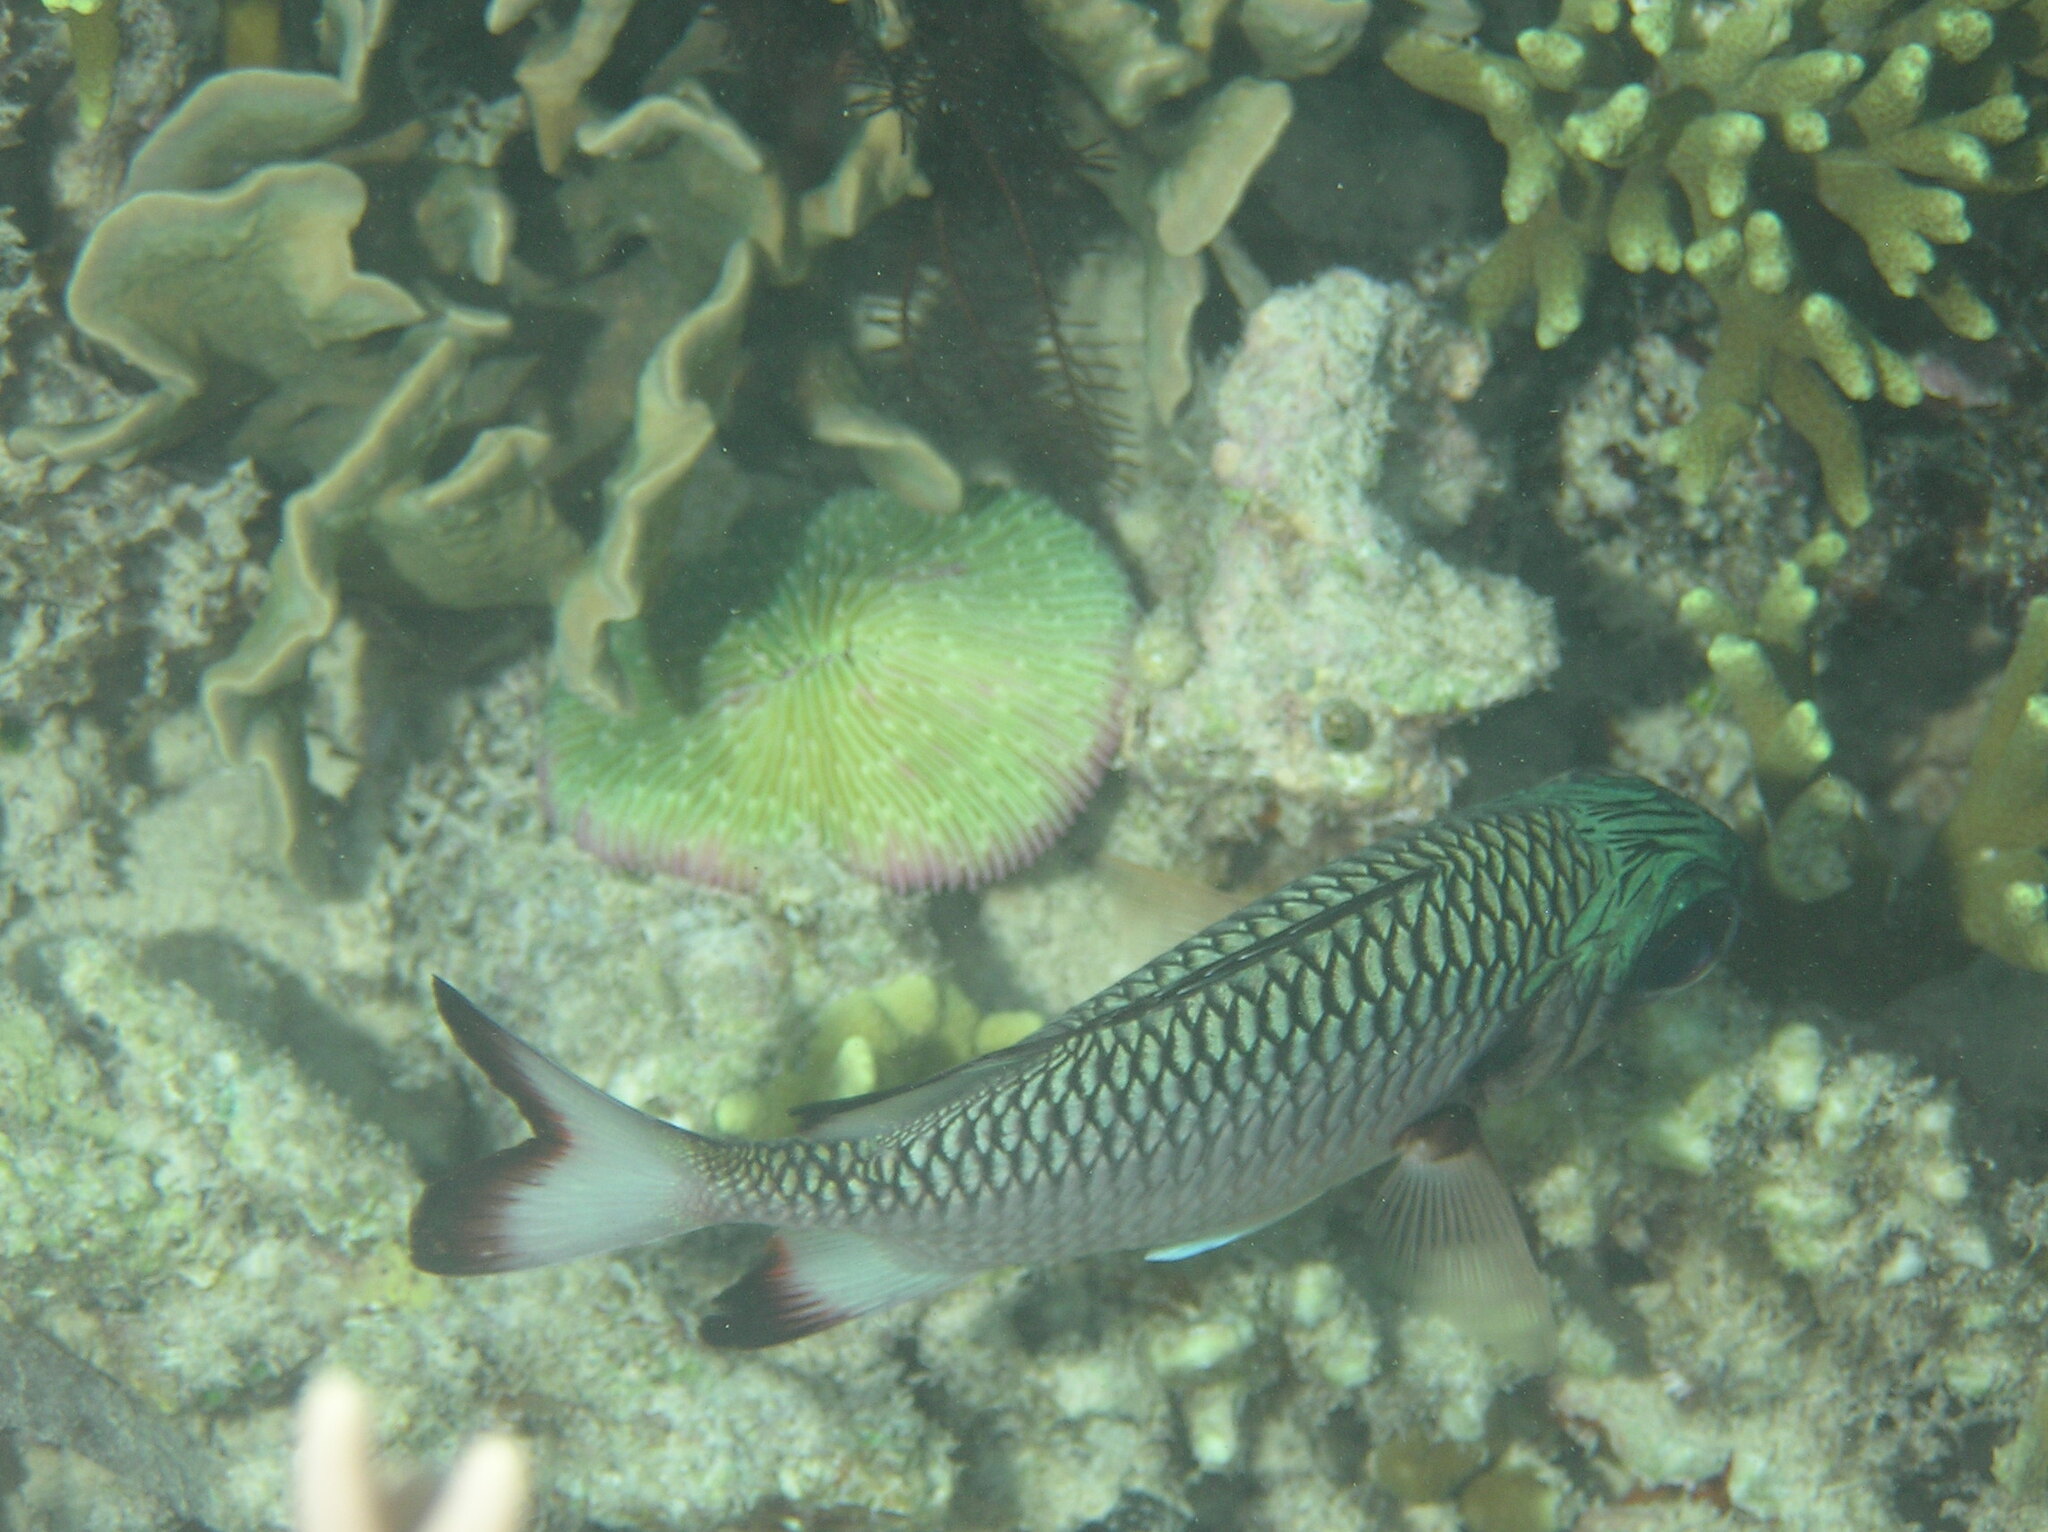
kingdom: Animalia
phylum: Chordata
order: Beryciformes
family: Holocentridae
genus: Myripristis
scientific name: Myripristis adusta
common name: Blackfin soldierfish
